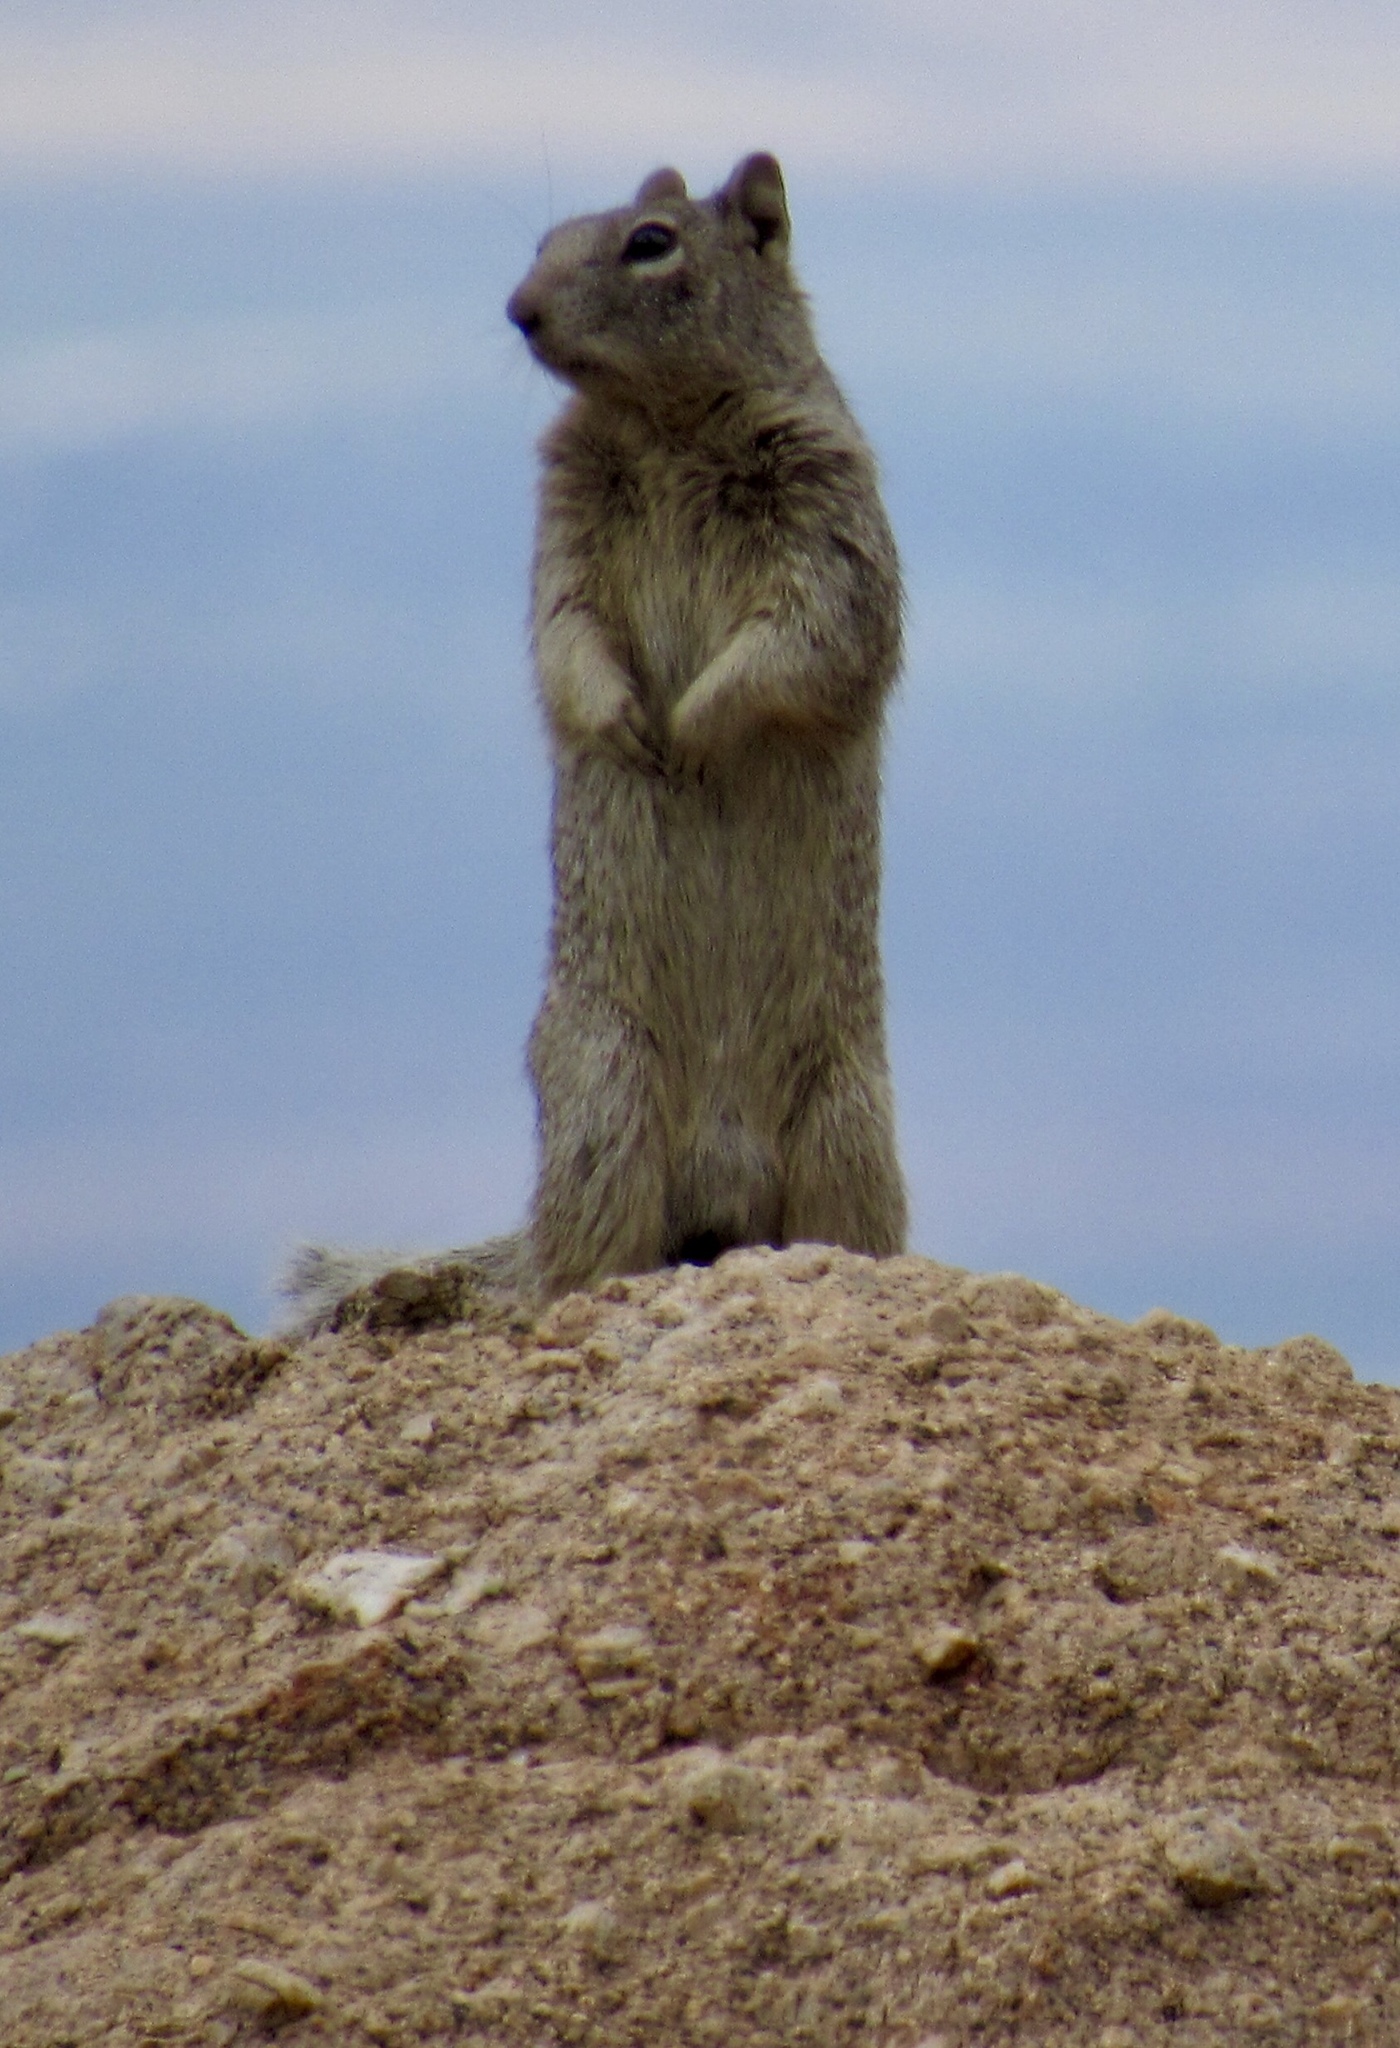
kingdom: Animalia
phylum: Chordata
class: Mammalia
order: Rodentia
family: Sciuridae
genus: Otospermophilus
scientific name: Otospermophilus variegatus
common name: Rock squirrel
